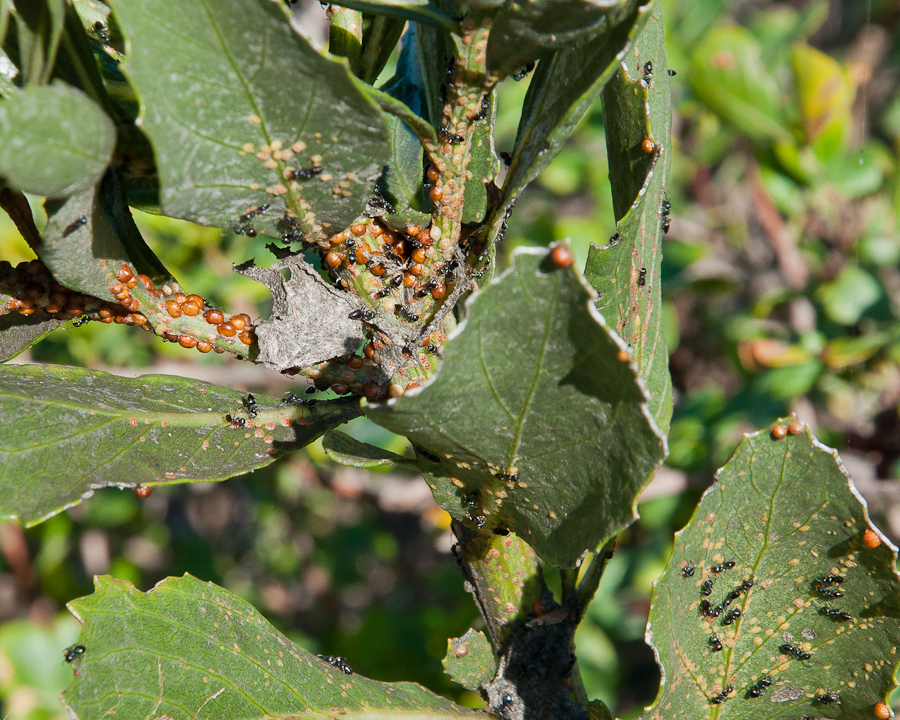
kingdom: Animalia
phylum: Arthropoda
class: Insecta
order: Hymenoptera
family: Formicidae
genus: Crematogaster
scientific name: Crematogaster peringueyi
